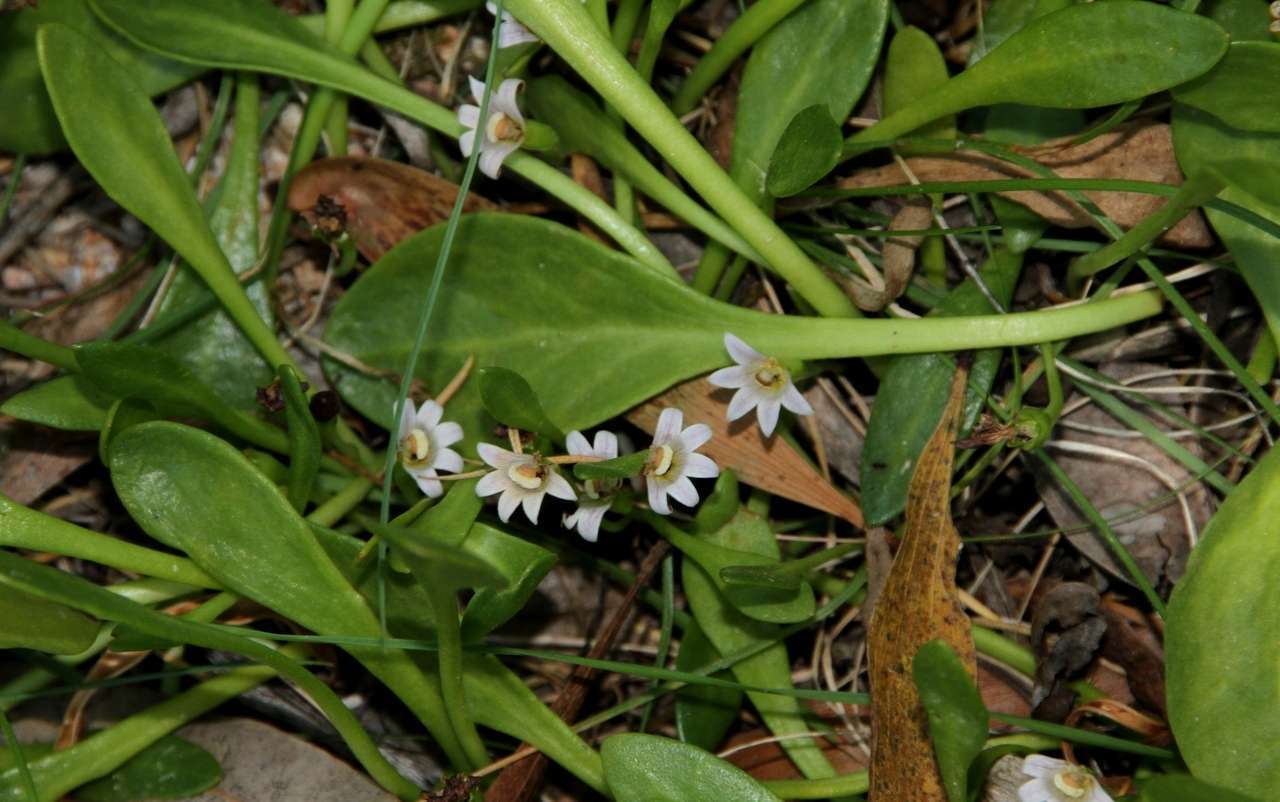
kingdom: Plantae
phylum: Tracheophyta
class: Magnoliopsida
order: Asterales
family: Goodeniaceae
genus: Goodenia
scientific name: Goodenia radicans
